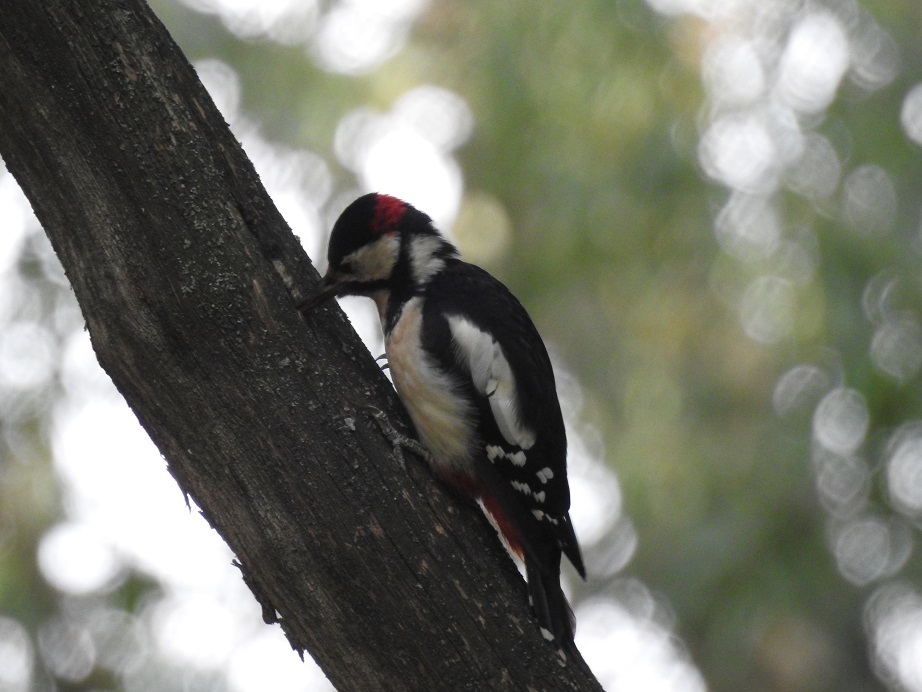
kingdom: Animalia
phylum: Chordata
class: Aves
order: Piciformes
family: Picidae
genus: Dendrocopos
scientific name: Dendrocopos major
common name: Great spotted woodpecker
